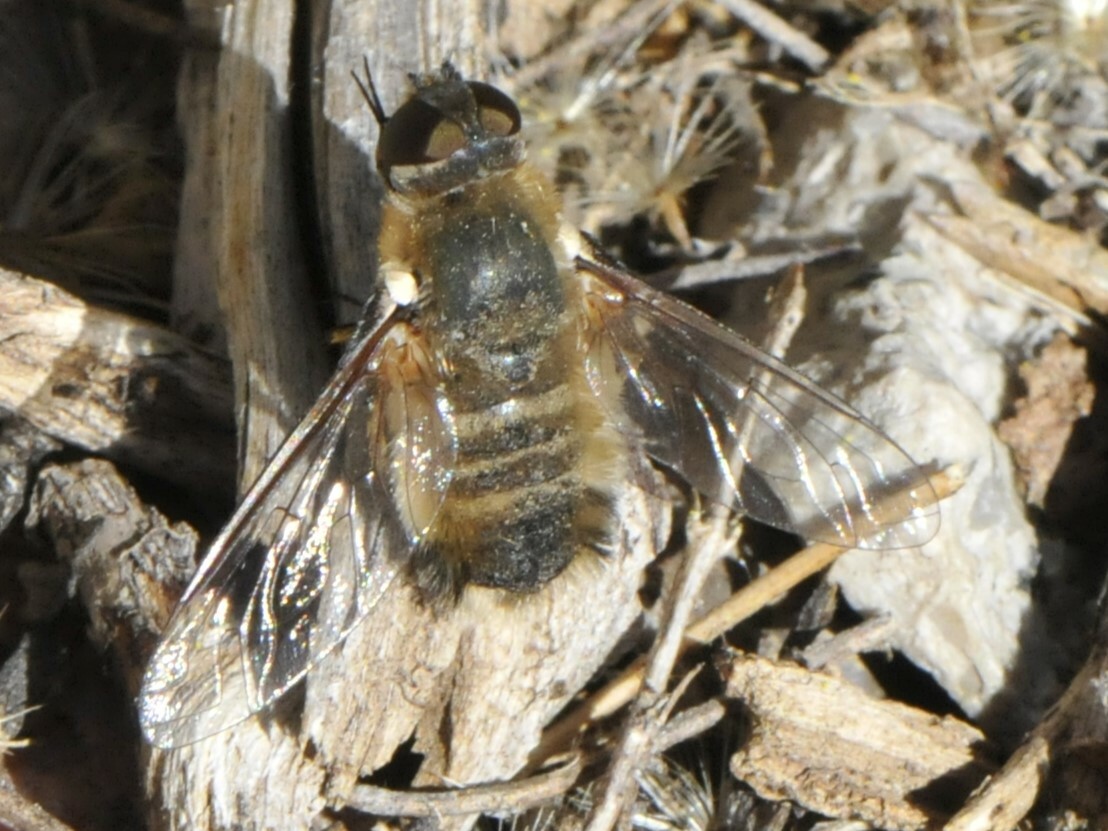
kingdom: Animalia
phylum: Arthropoda
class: Insecta
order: Diptera
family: Bombyliidae
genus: Villa
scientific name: Villa
